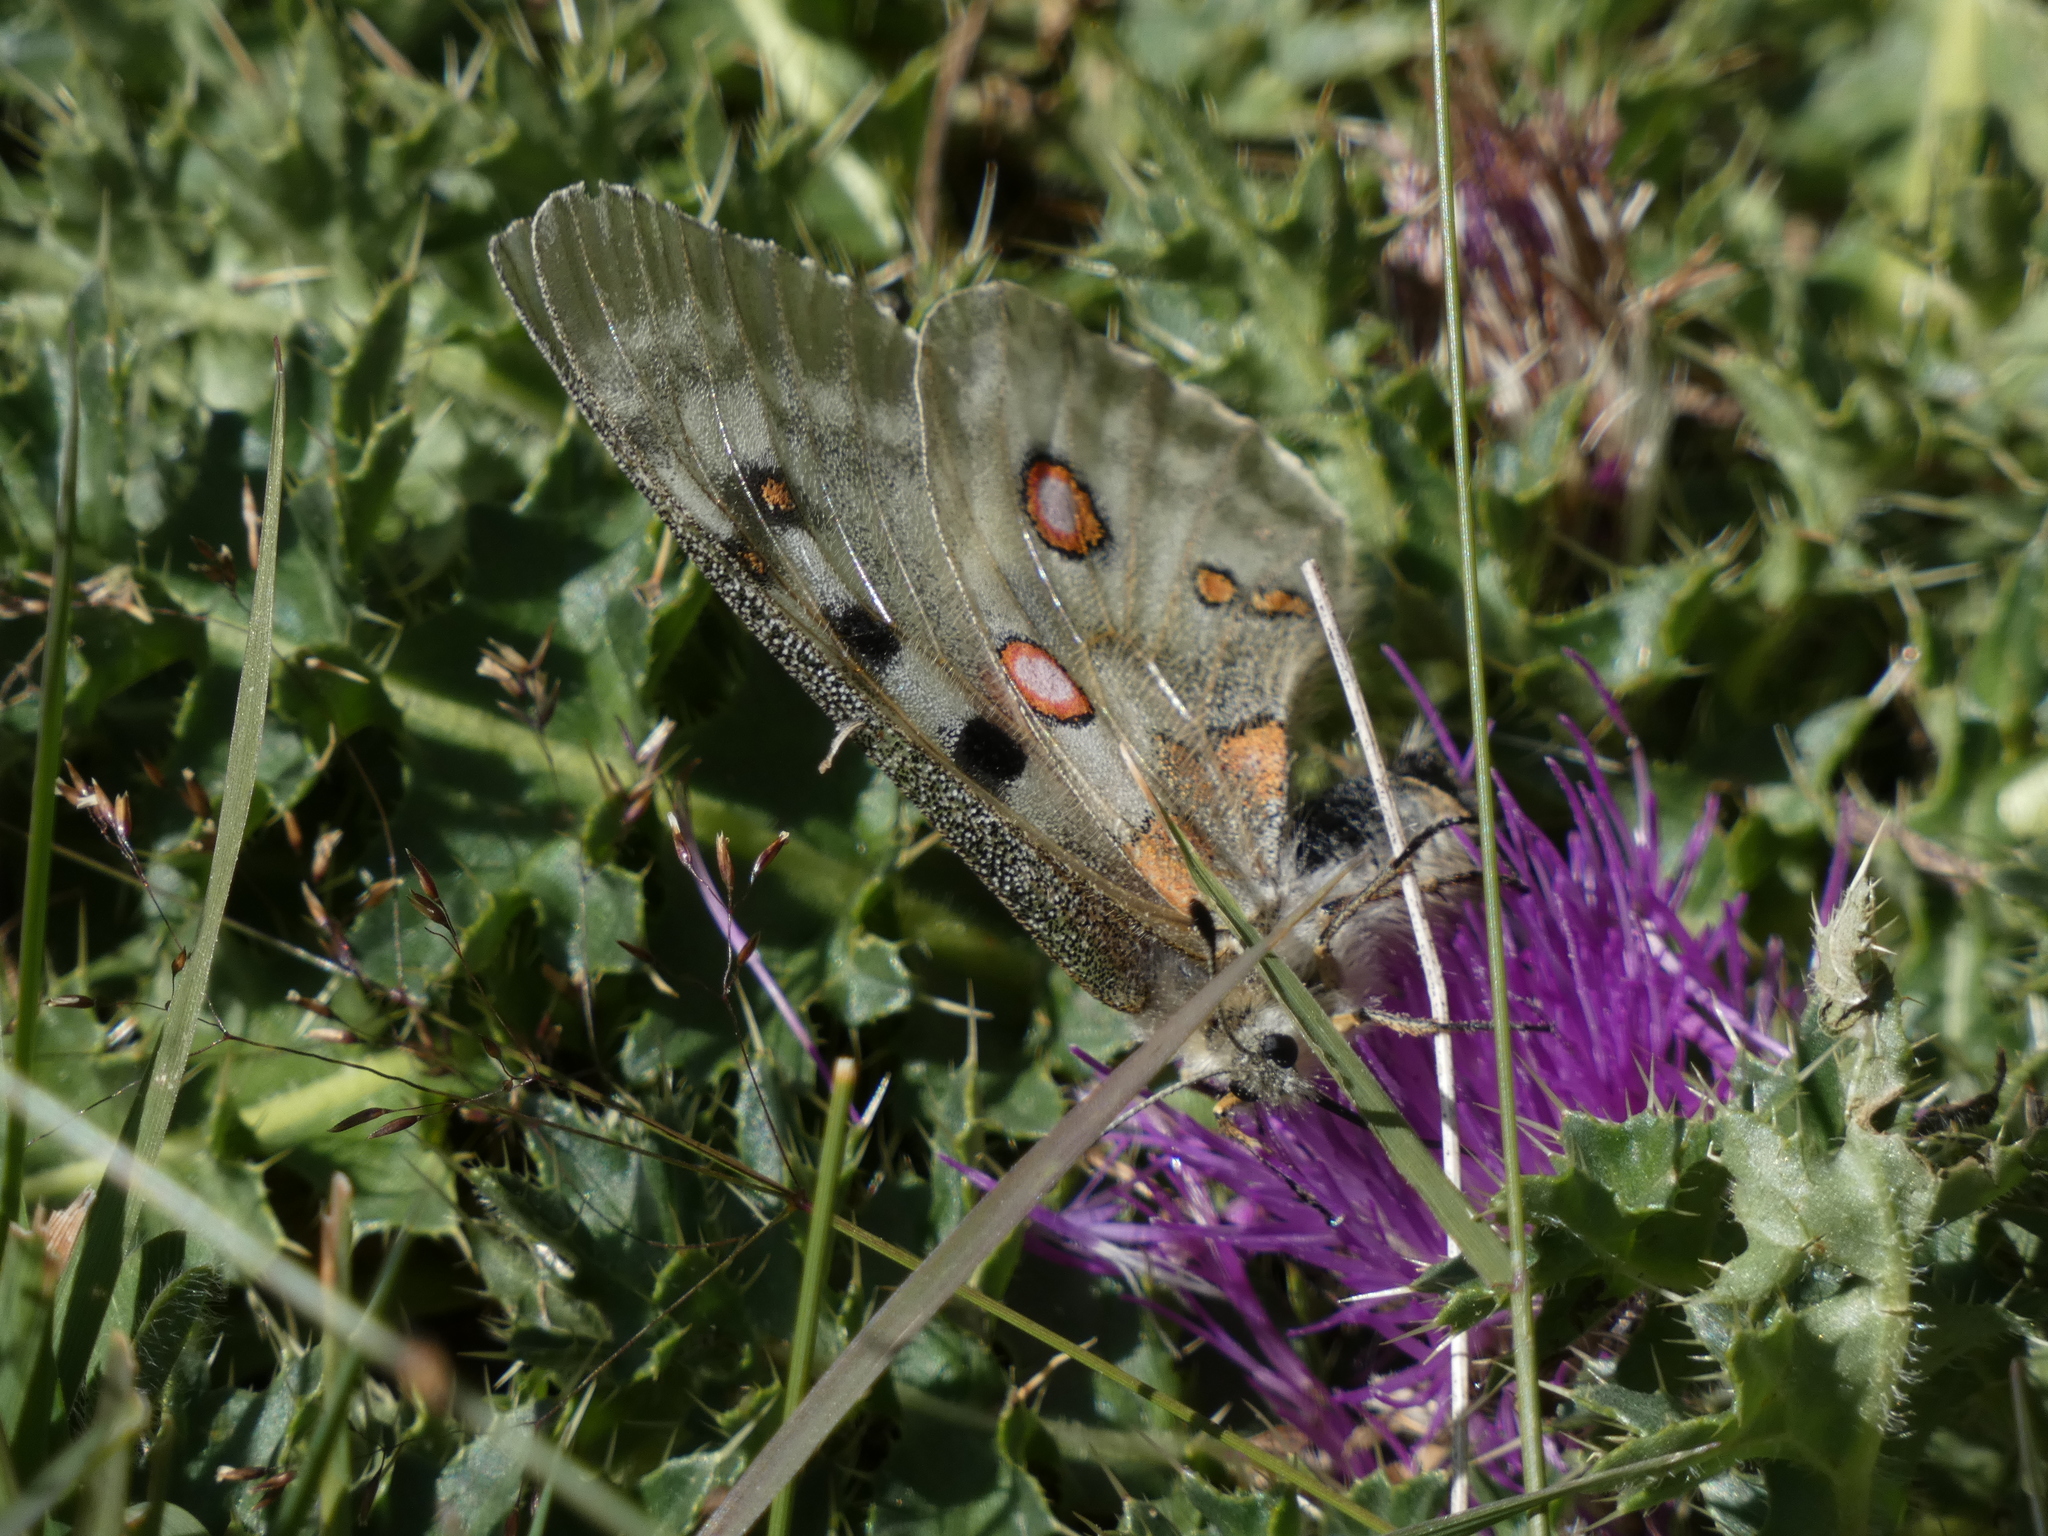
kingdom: Animalia
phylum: Arthropoda
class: Insecta
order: Lepidoptera
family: Papilionidae
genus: Parnassius
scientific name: Parnassius apollo
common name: Apollo
